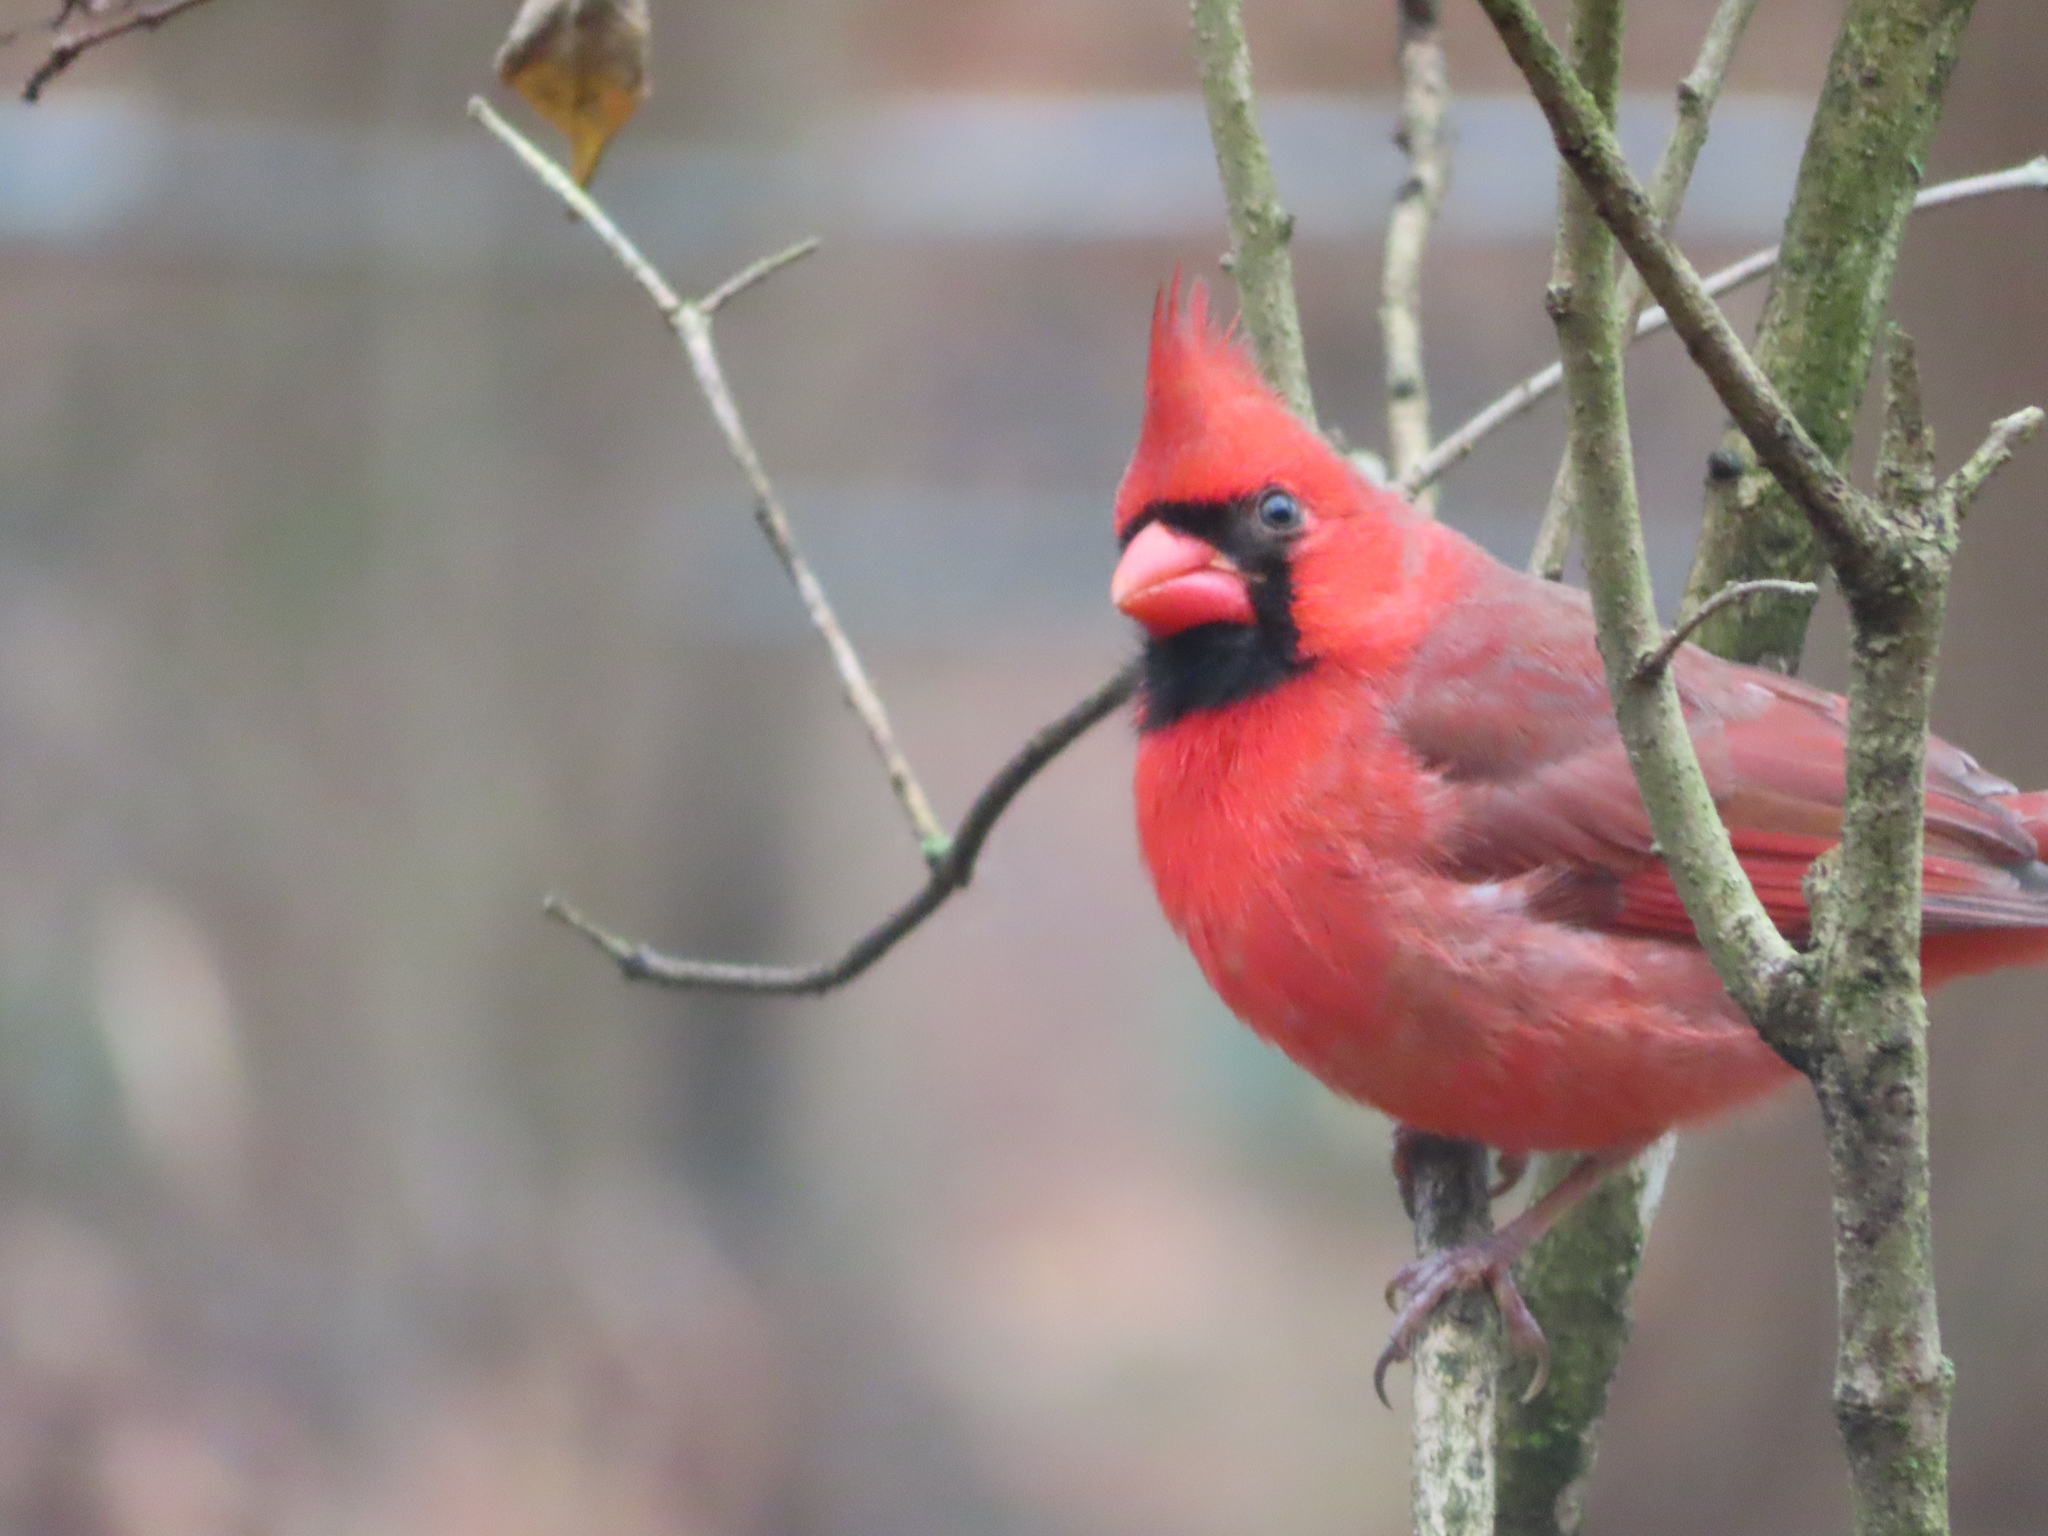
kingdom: Animalia
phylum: Chordata
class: Aves
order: Passeriformes
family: Cardinalidae
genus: Cardinalis
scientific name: Cardinalis cardinalis
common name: Northern cardinal
